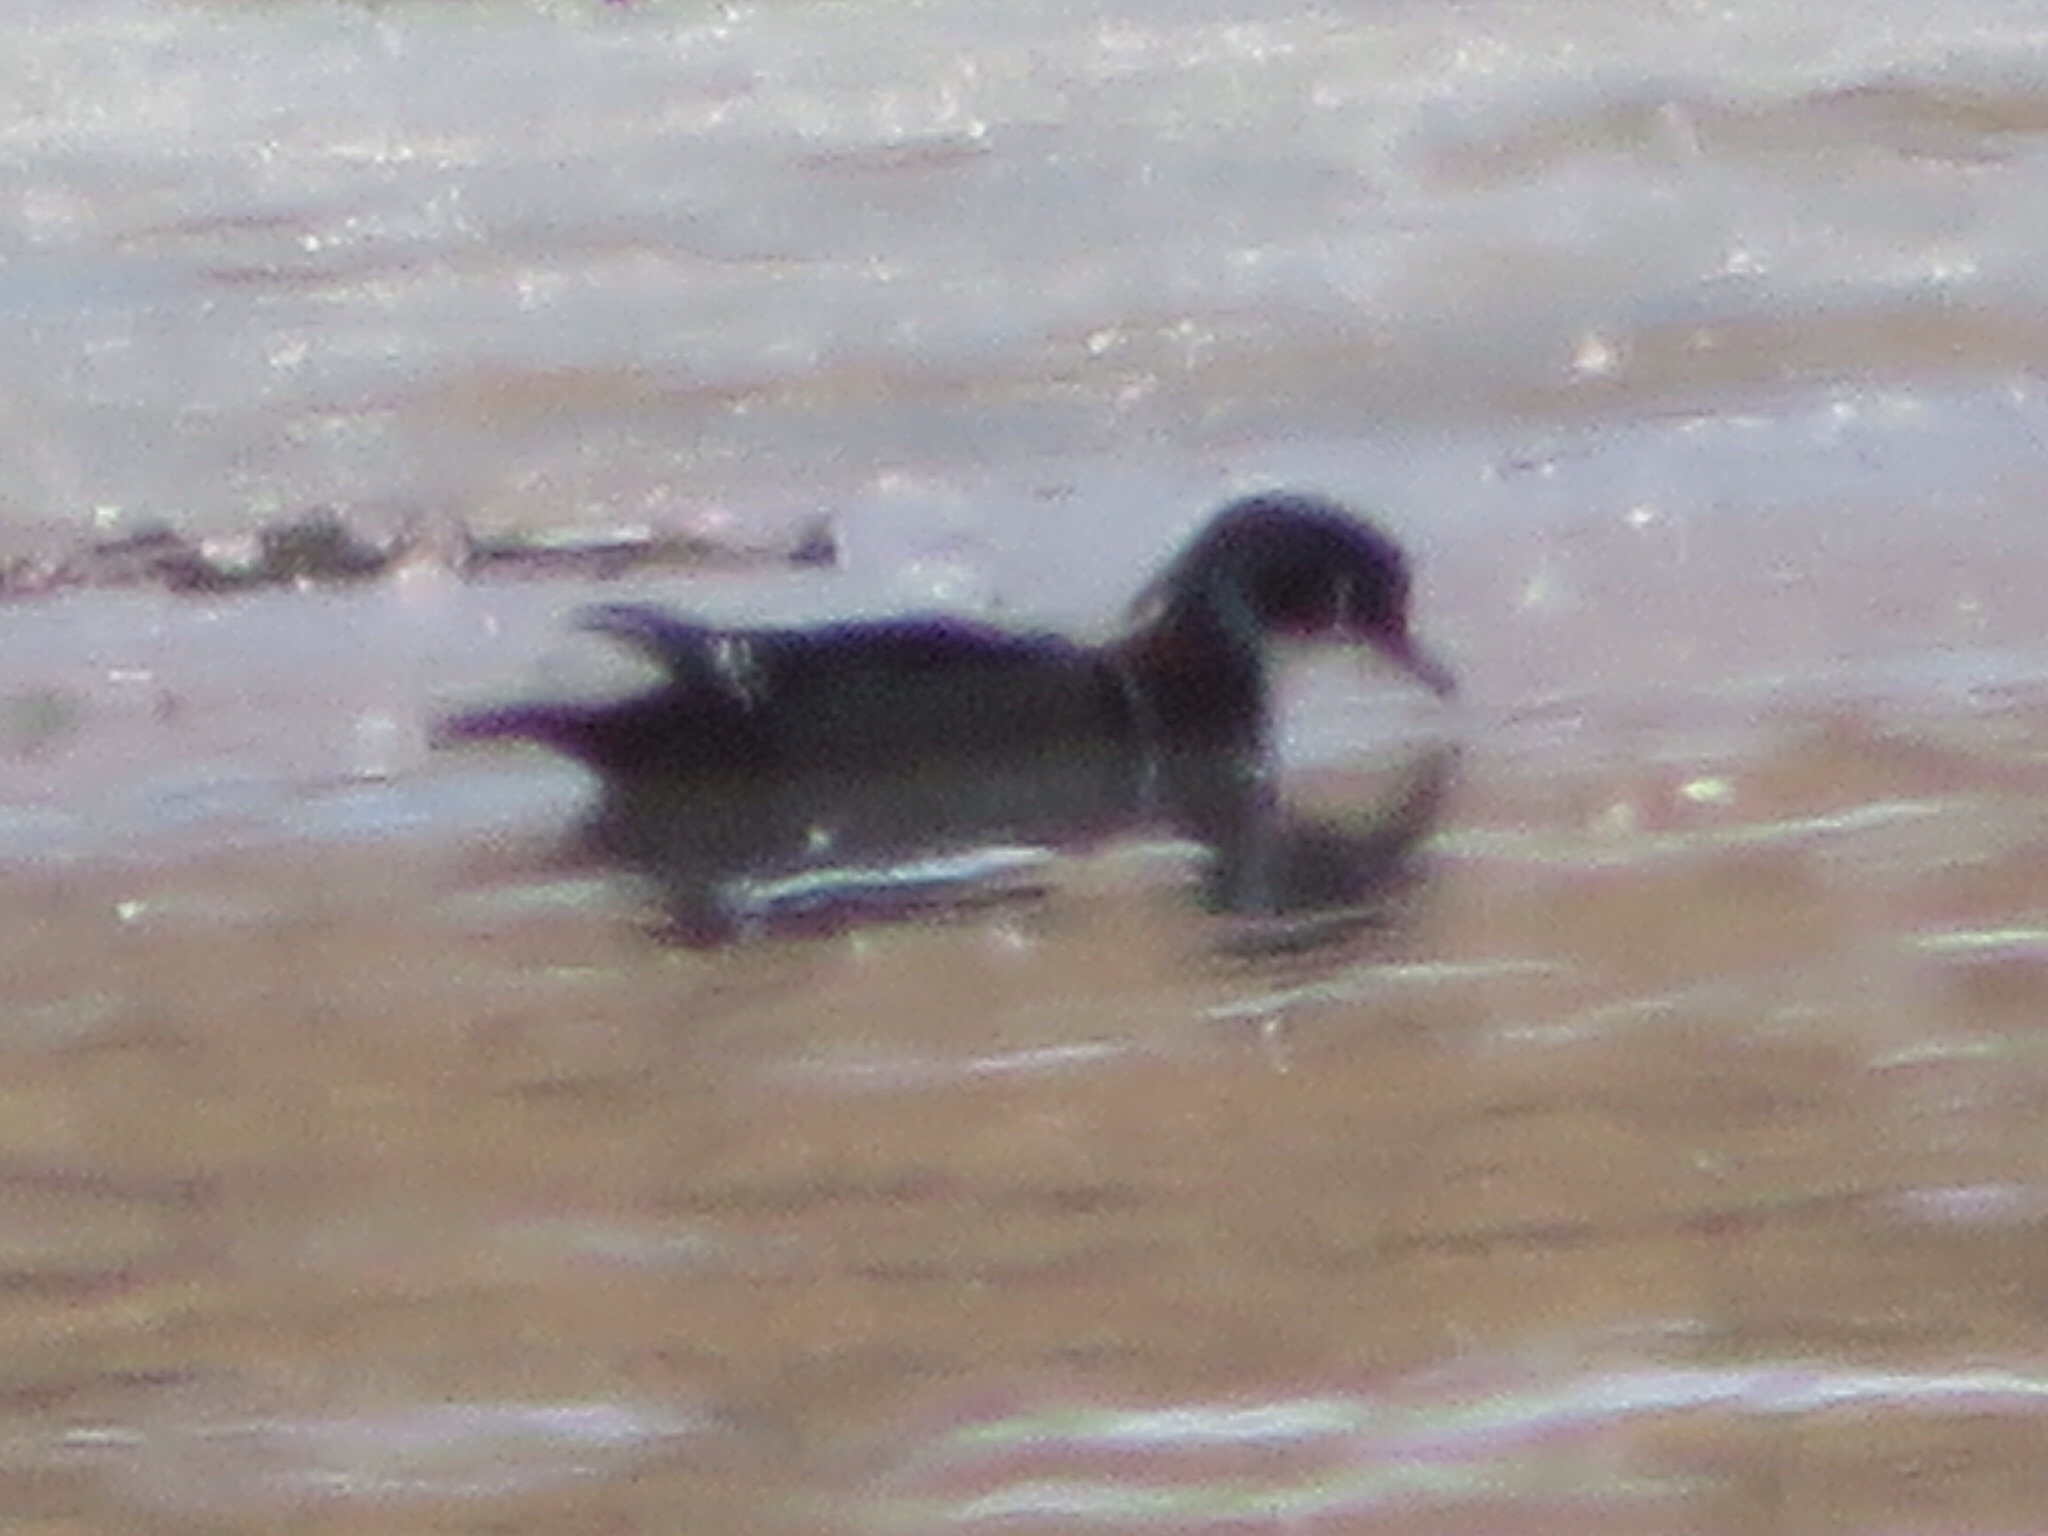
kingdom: Animalia
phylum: Chordata
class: Aves
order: Anseriformes
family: Anatidae
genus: Aix
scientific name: Aix sponsa
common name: Wood duck
